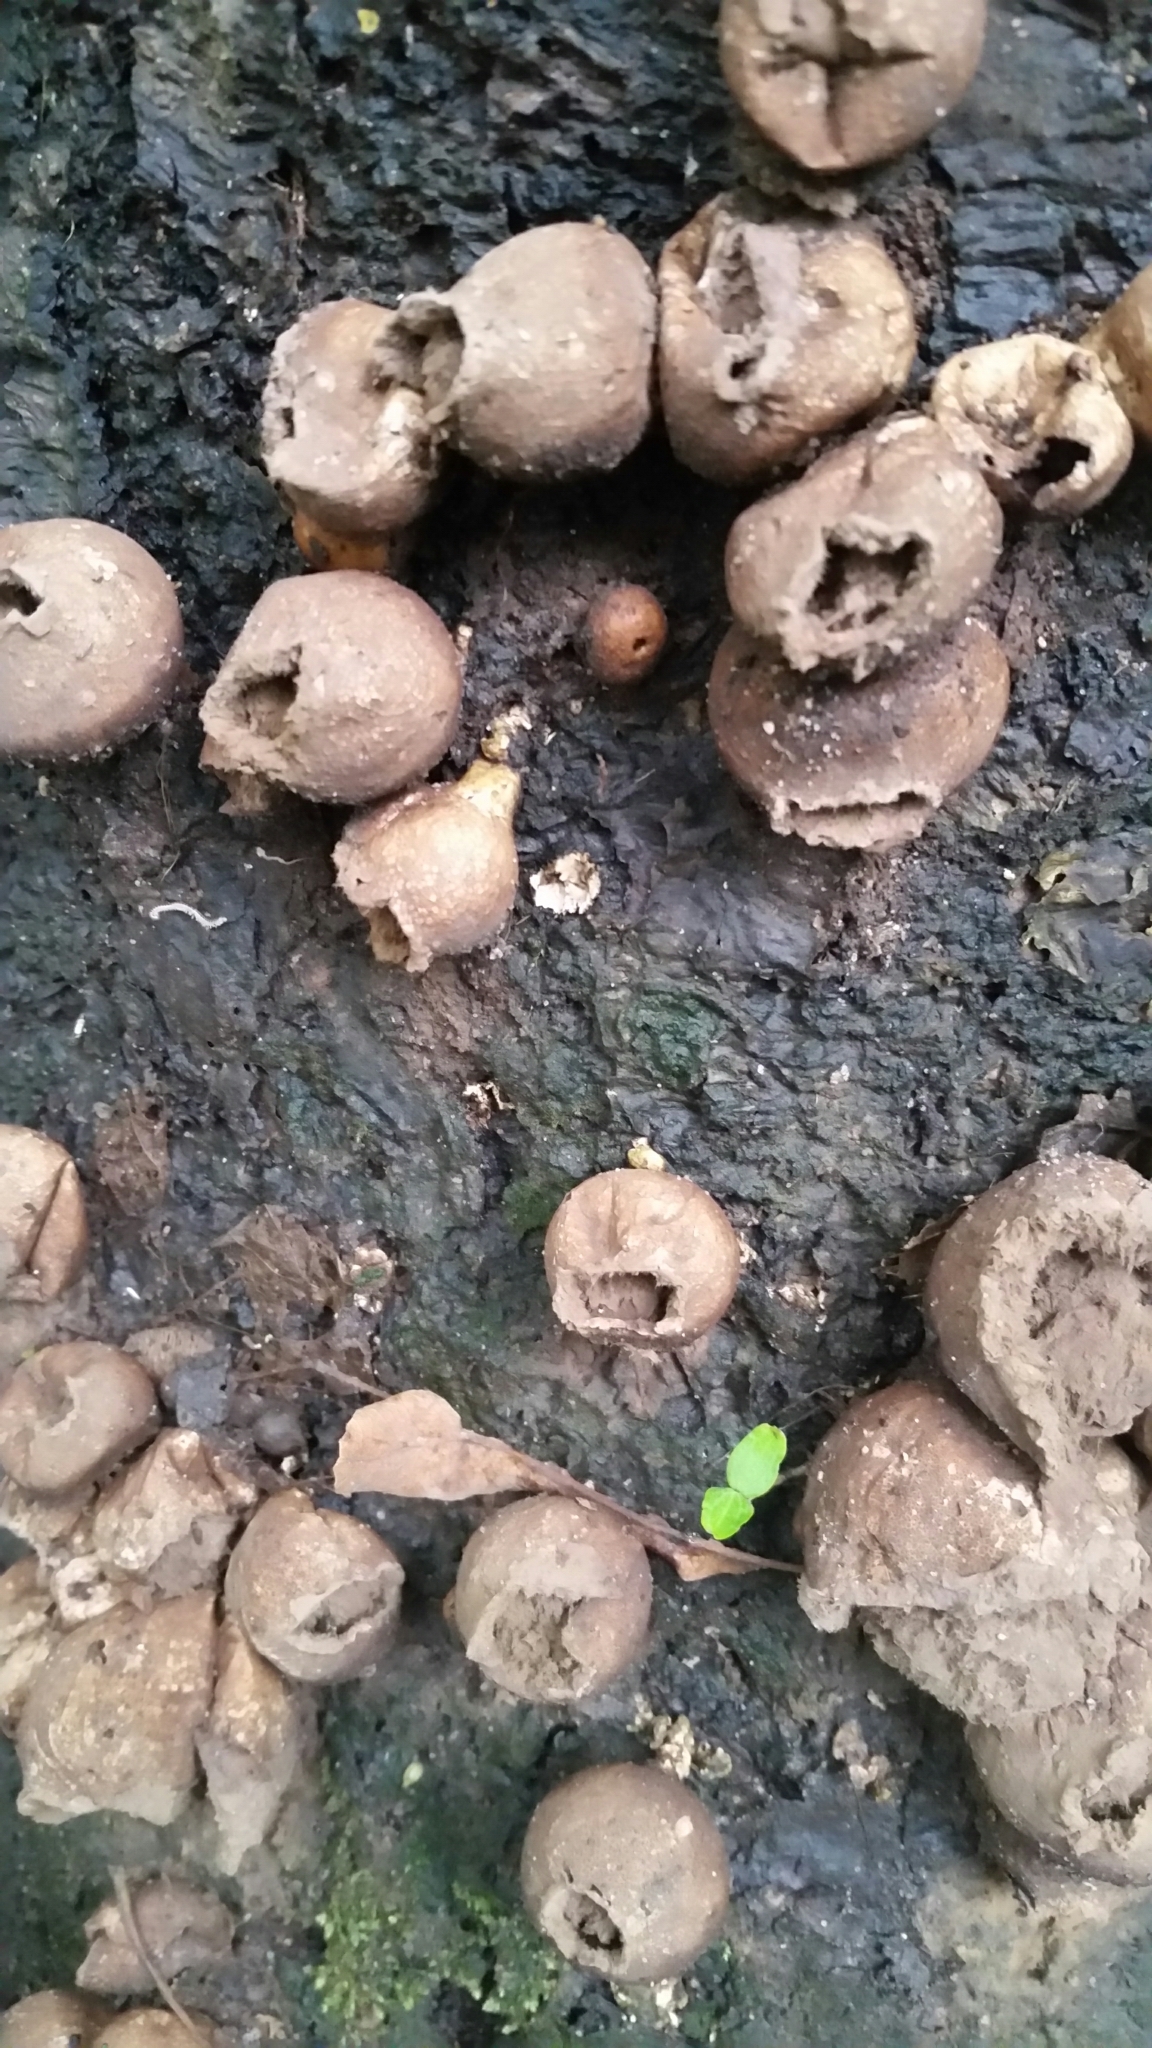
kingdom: Fungi
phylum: Basidiomycota
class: Agaricomycetes
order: Agaricales
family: Lycoperdaceae
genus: Apioperdon
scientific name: Apioperdon pyriforme
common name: Pear-shaped puffball
